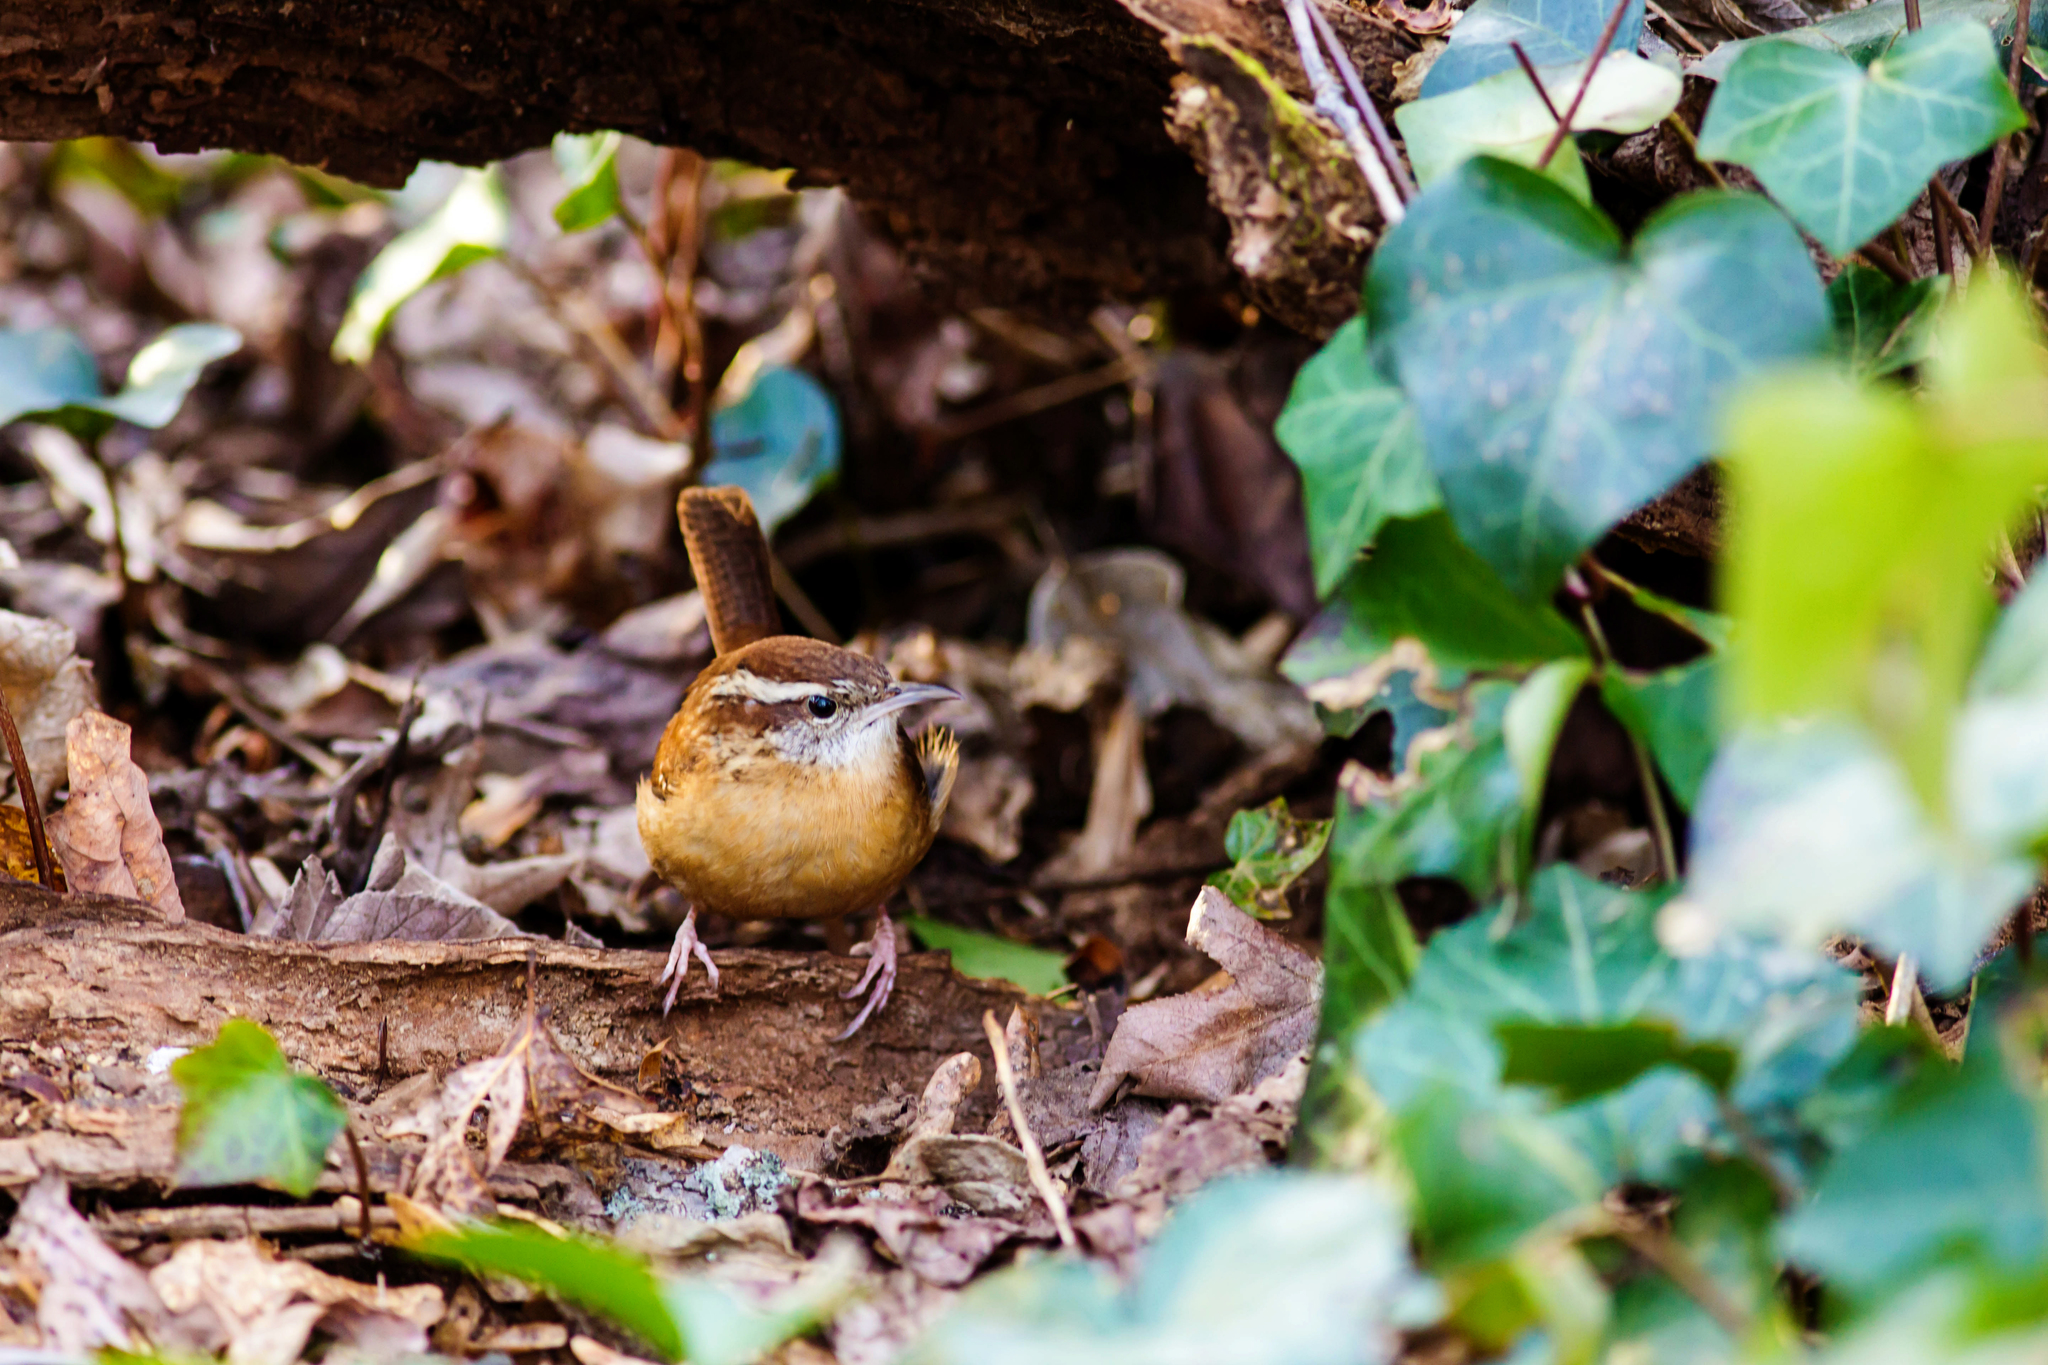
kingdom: Animalia
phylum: Chordata
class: Aves
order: Passeriformes
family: Troglodytidae
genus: Thryothorus
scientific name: Thryothorus ludovicianus
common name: Carolina wren
